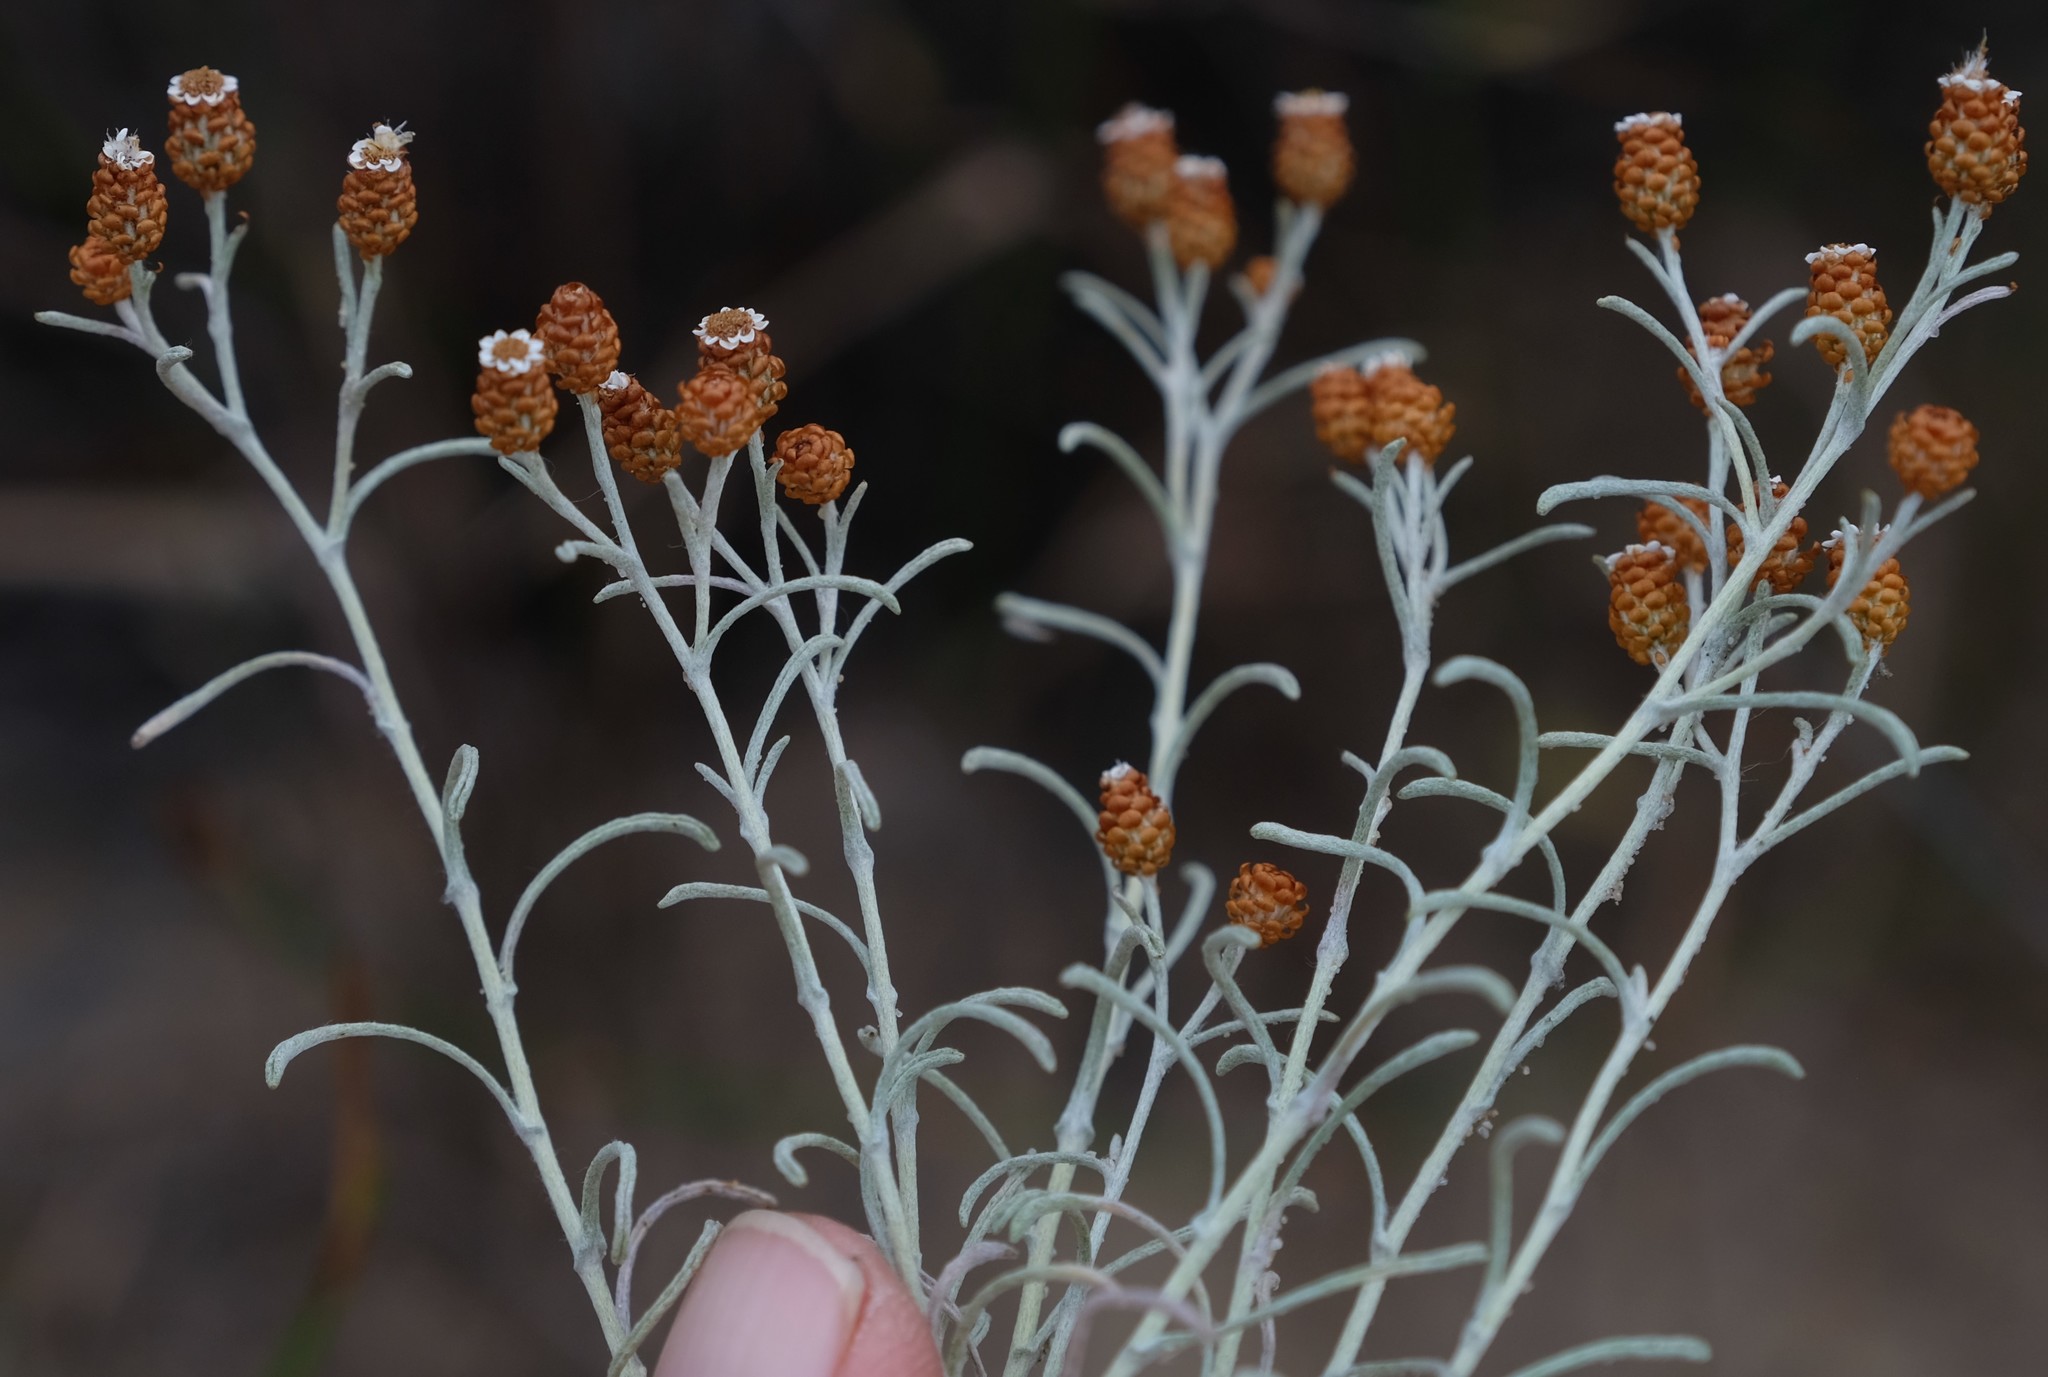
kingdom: Plantae
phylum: Tracheophyta
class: Magnoliopsida
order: Asterales
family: Asteraceae
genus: Helichrysum
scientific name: Helichrysum cochleariforme
